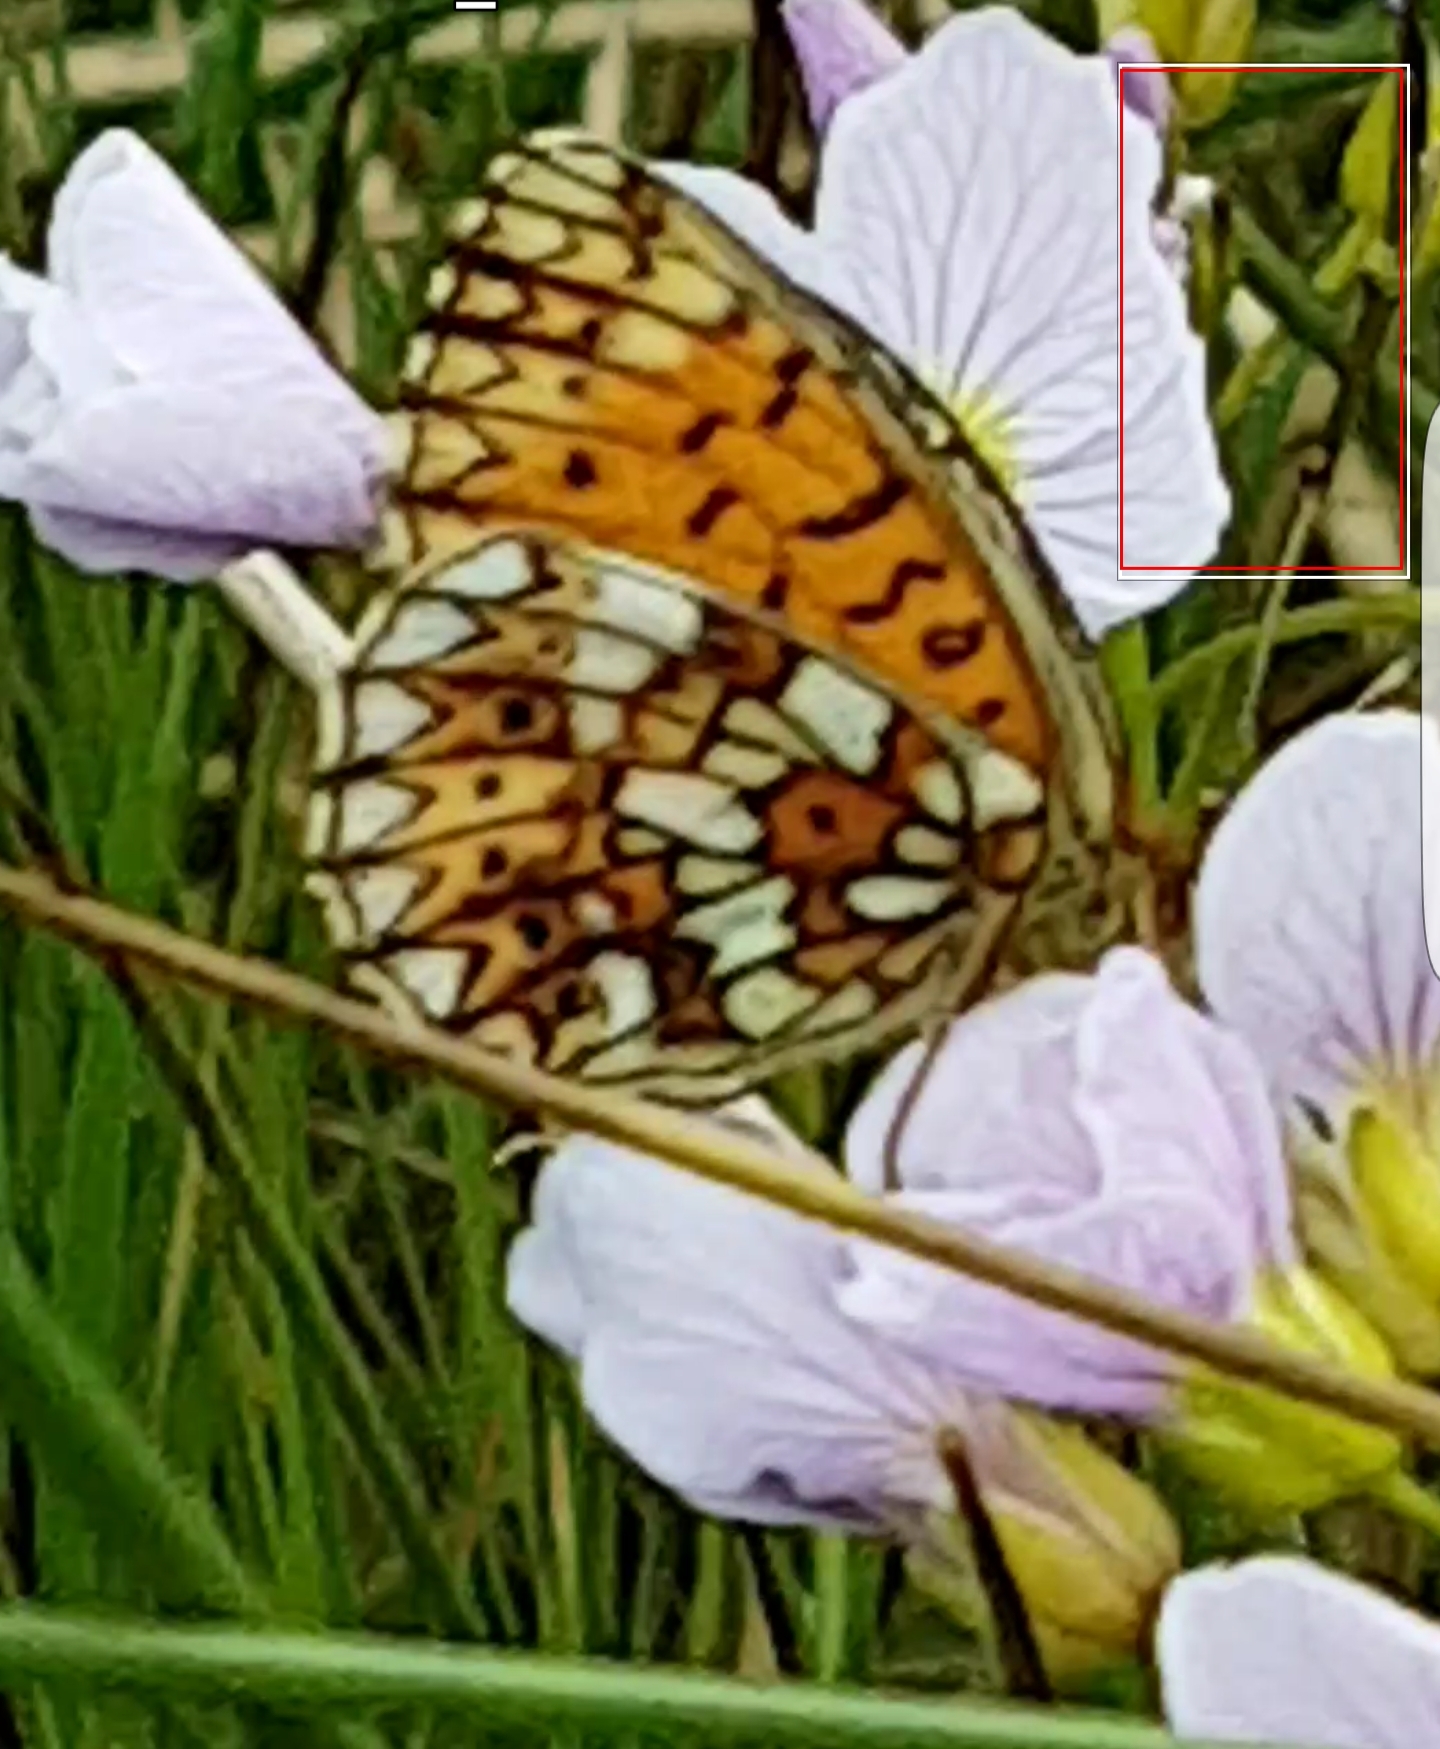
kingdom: Animalia
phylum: Arthropoda
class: Insecta
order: Lepidoptera
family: Nymphalidae
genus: Boloria
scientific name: Boloria selene
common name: Small pearl-bordered fritillary
